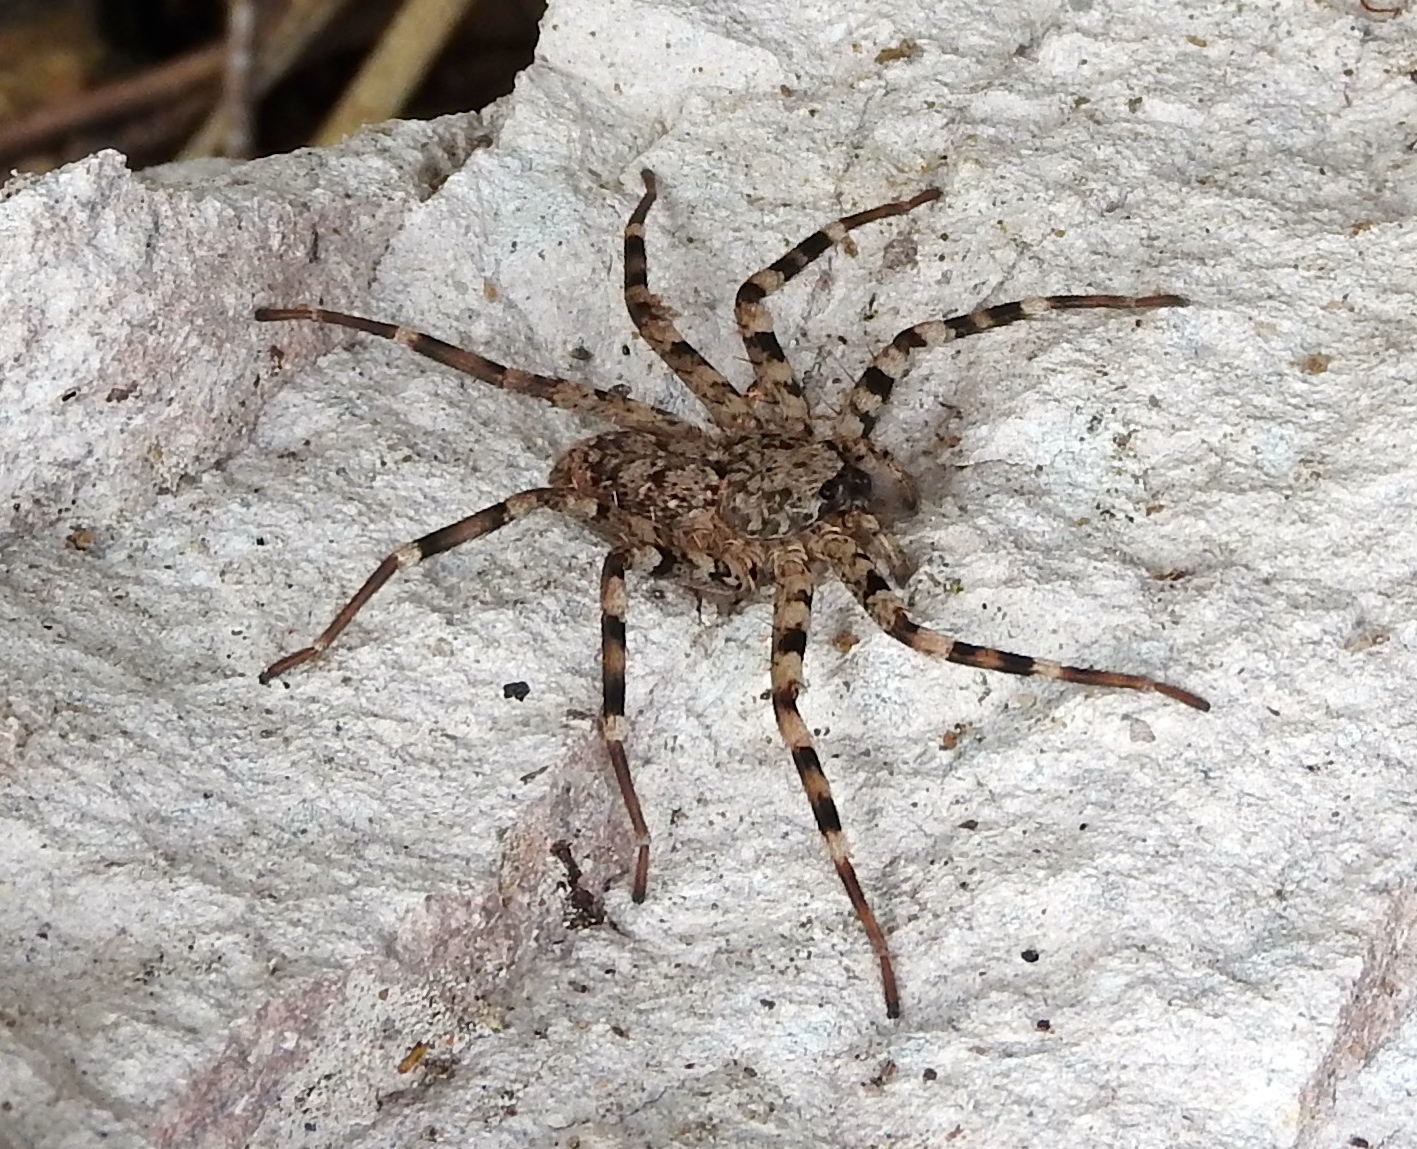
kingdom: Animalia
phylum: Arthropoda
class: Arachnida
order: Araneae
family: Selenopidae
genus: Selenops
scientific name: Selenops
